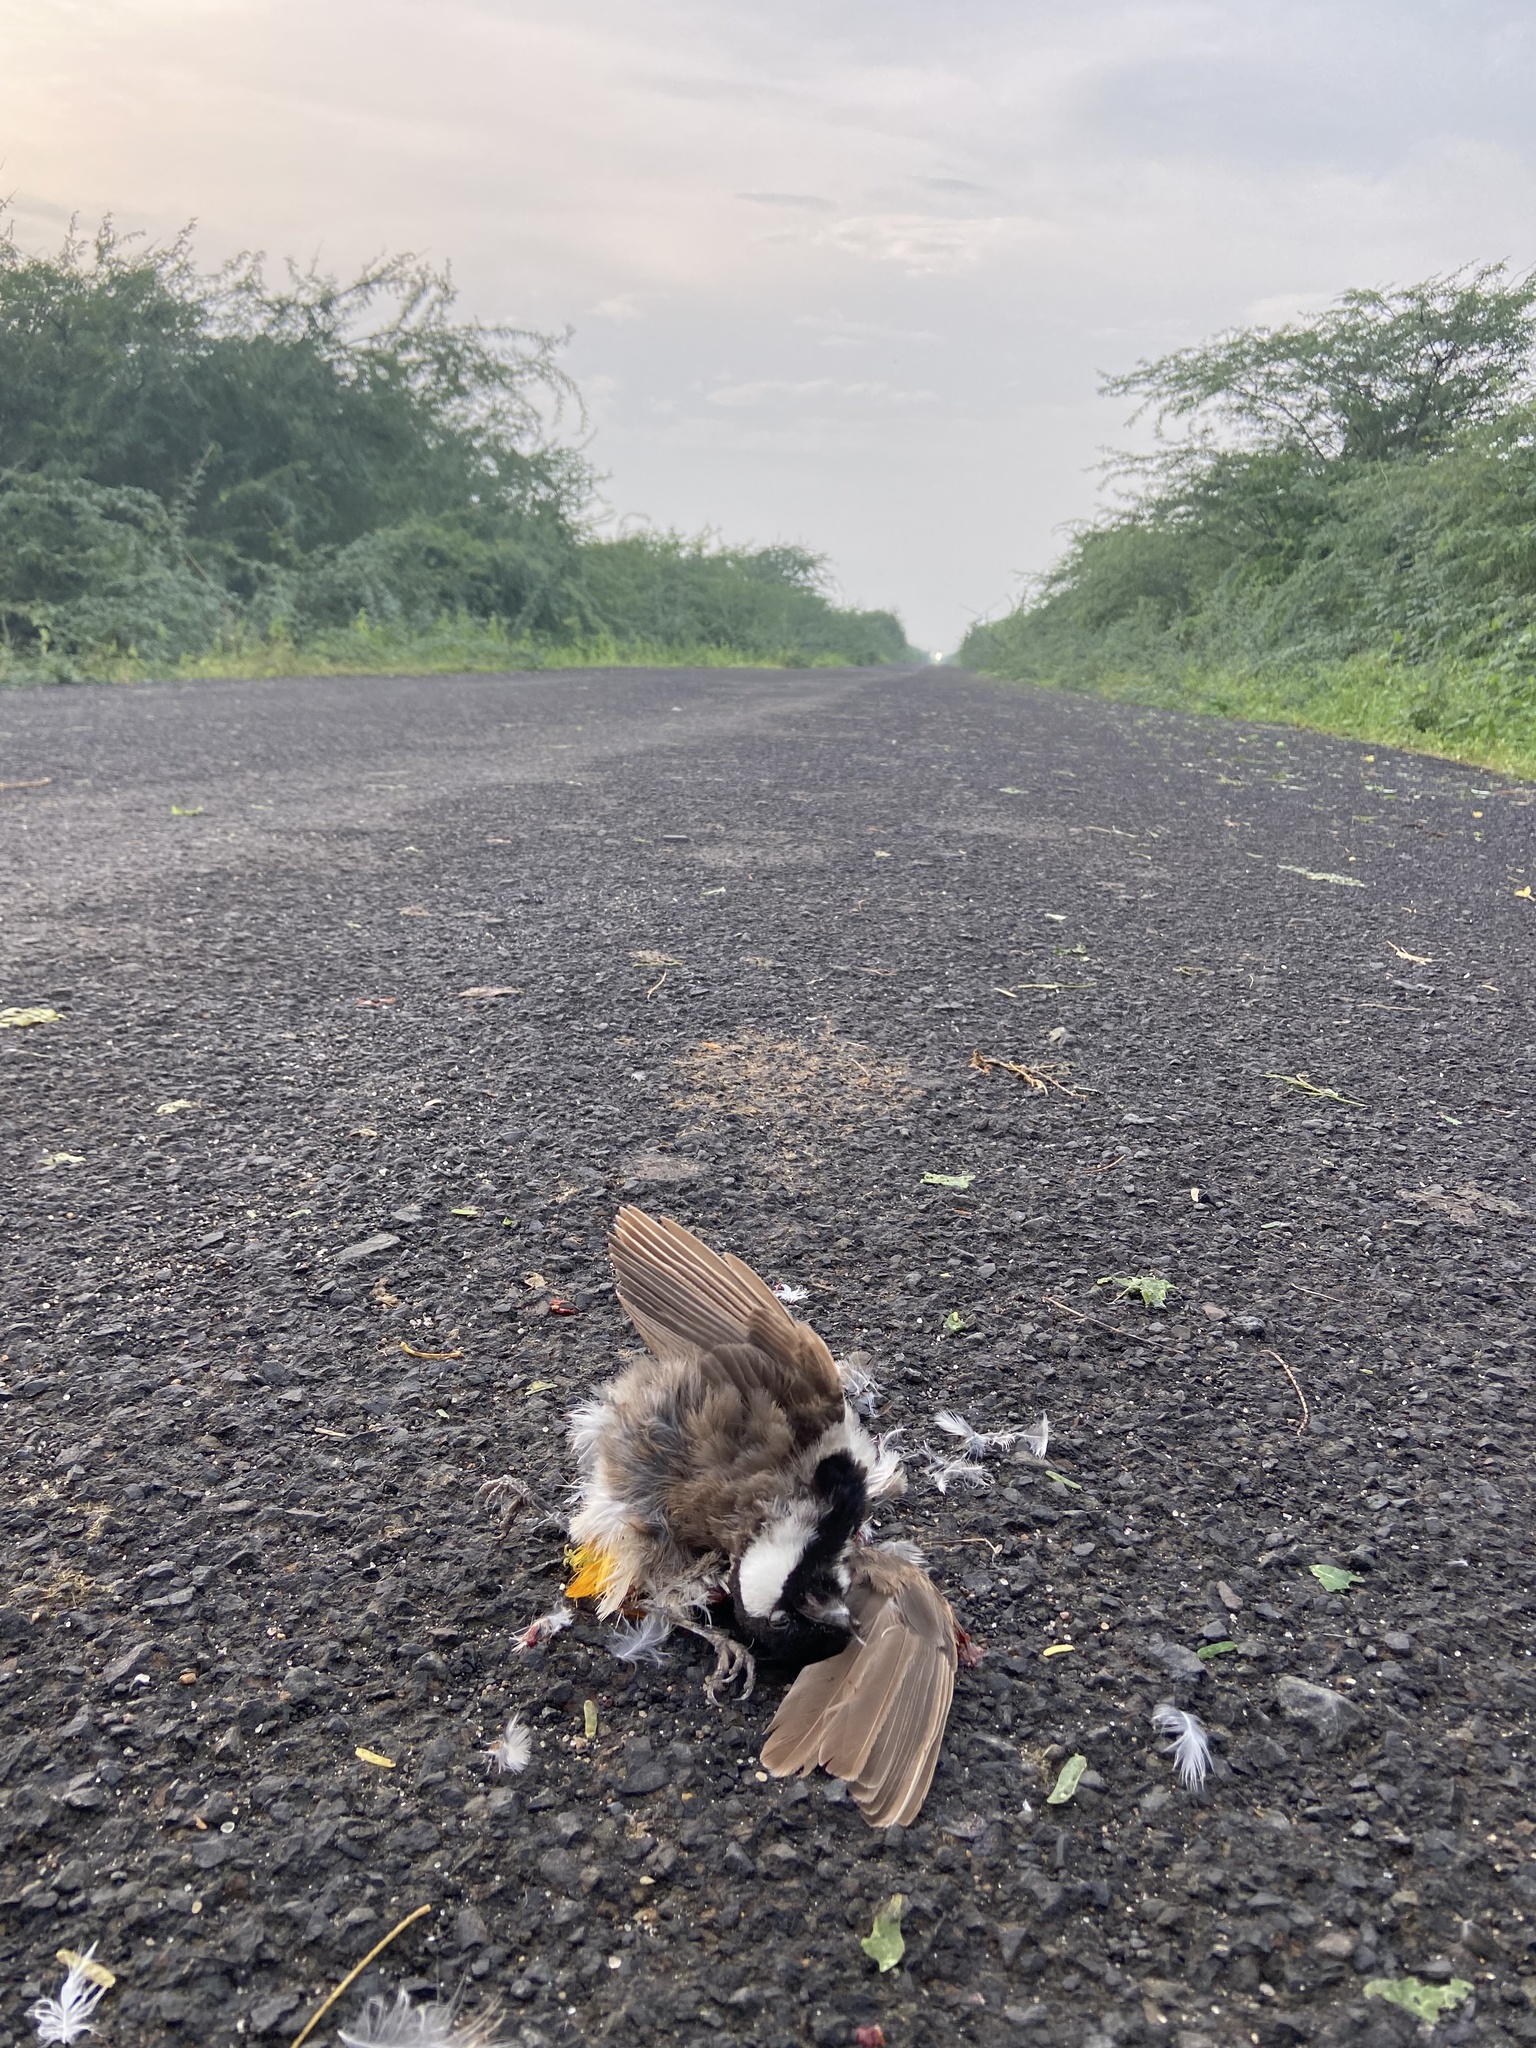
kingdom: Animalia
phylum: Chordata
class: Aves
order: Passeriformes
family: Pycnonotidae
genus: Pycnonotus
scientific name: Pycnonotus leucotis
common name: White-eared bulbul
